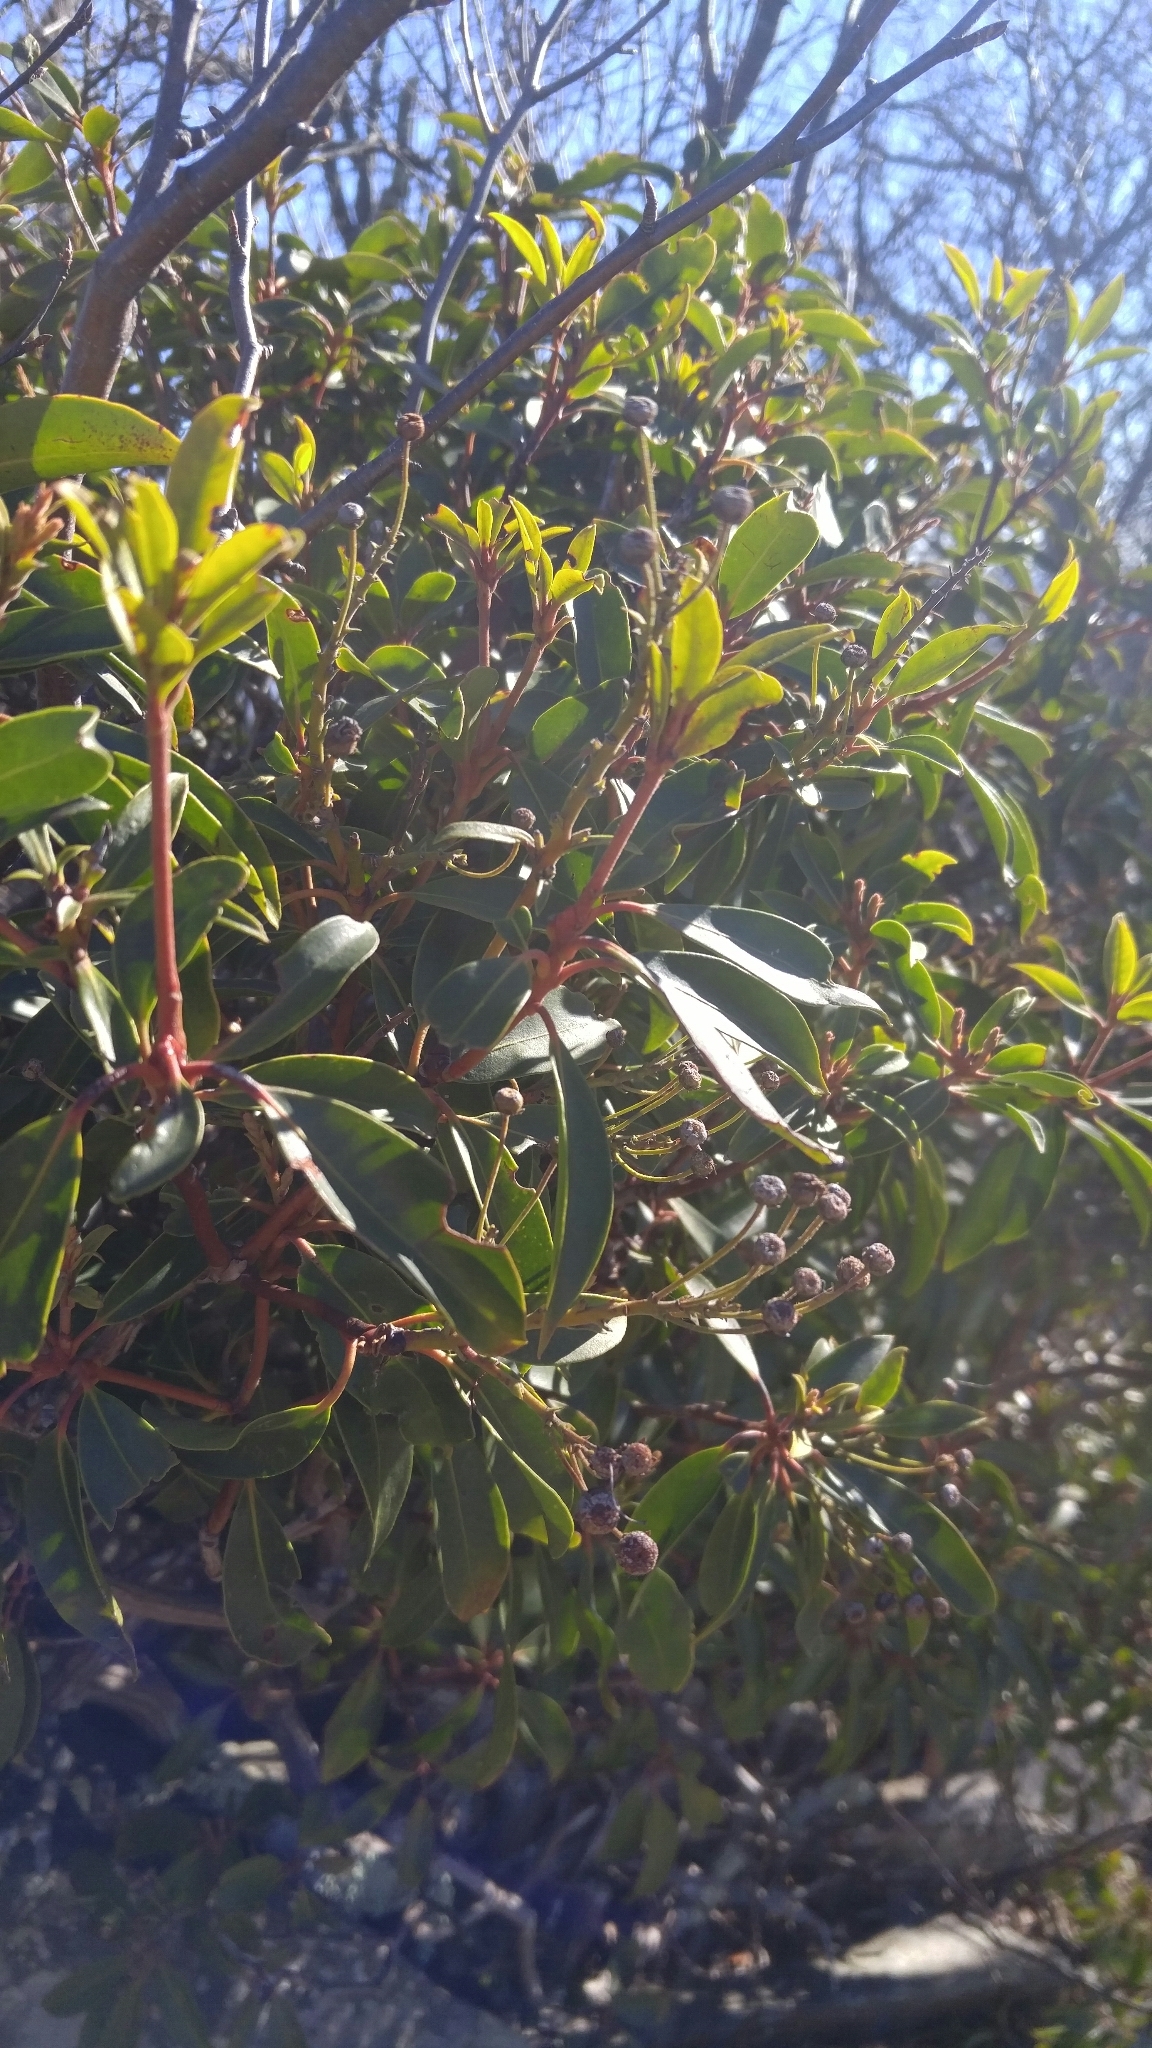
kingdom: Plantae
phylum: Tracheophyta
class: Magnoliopsida
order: Ericales
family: Ericaceae
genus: Kalmia
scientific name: Kalmia latifolia
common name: Mountain-laurel
